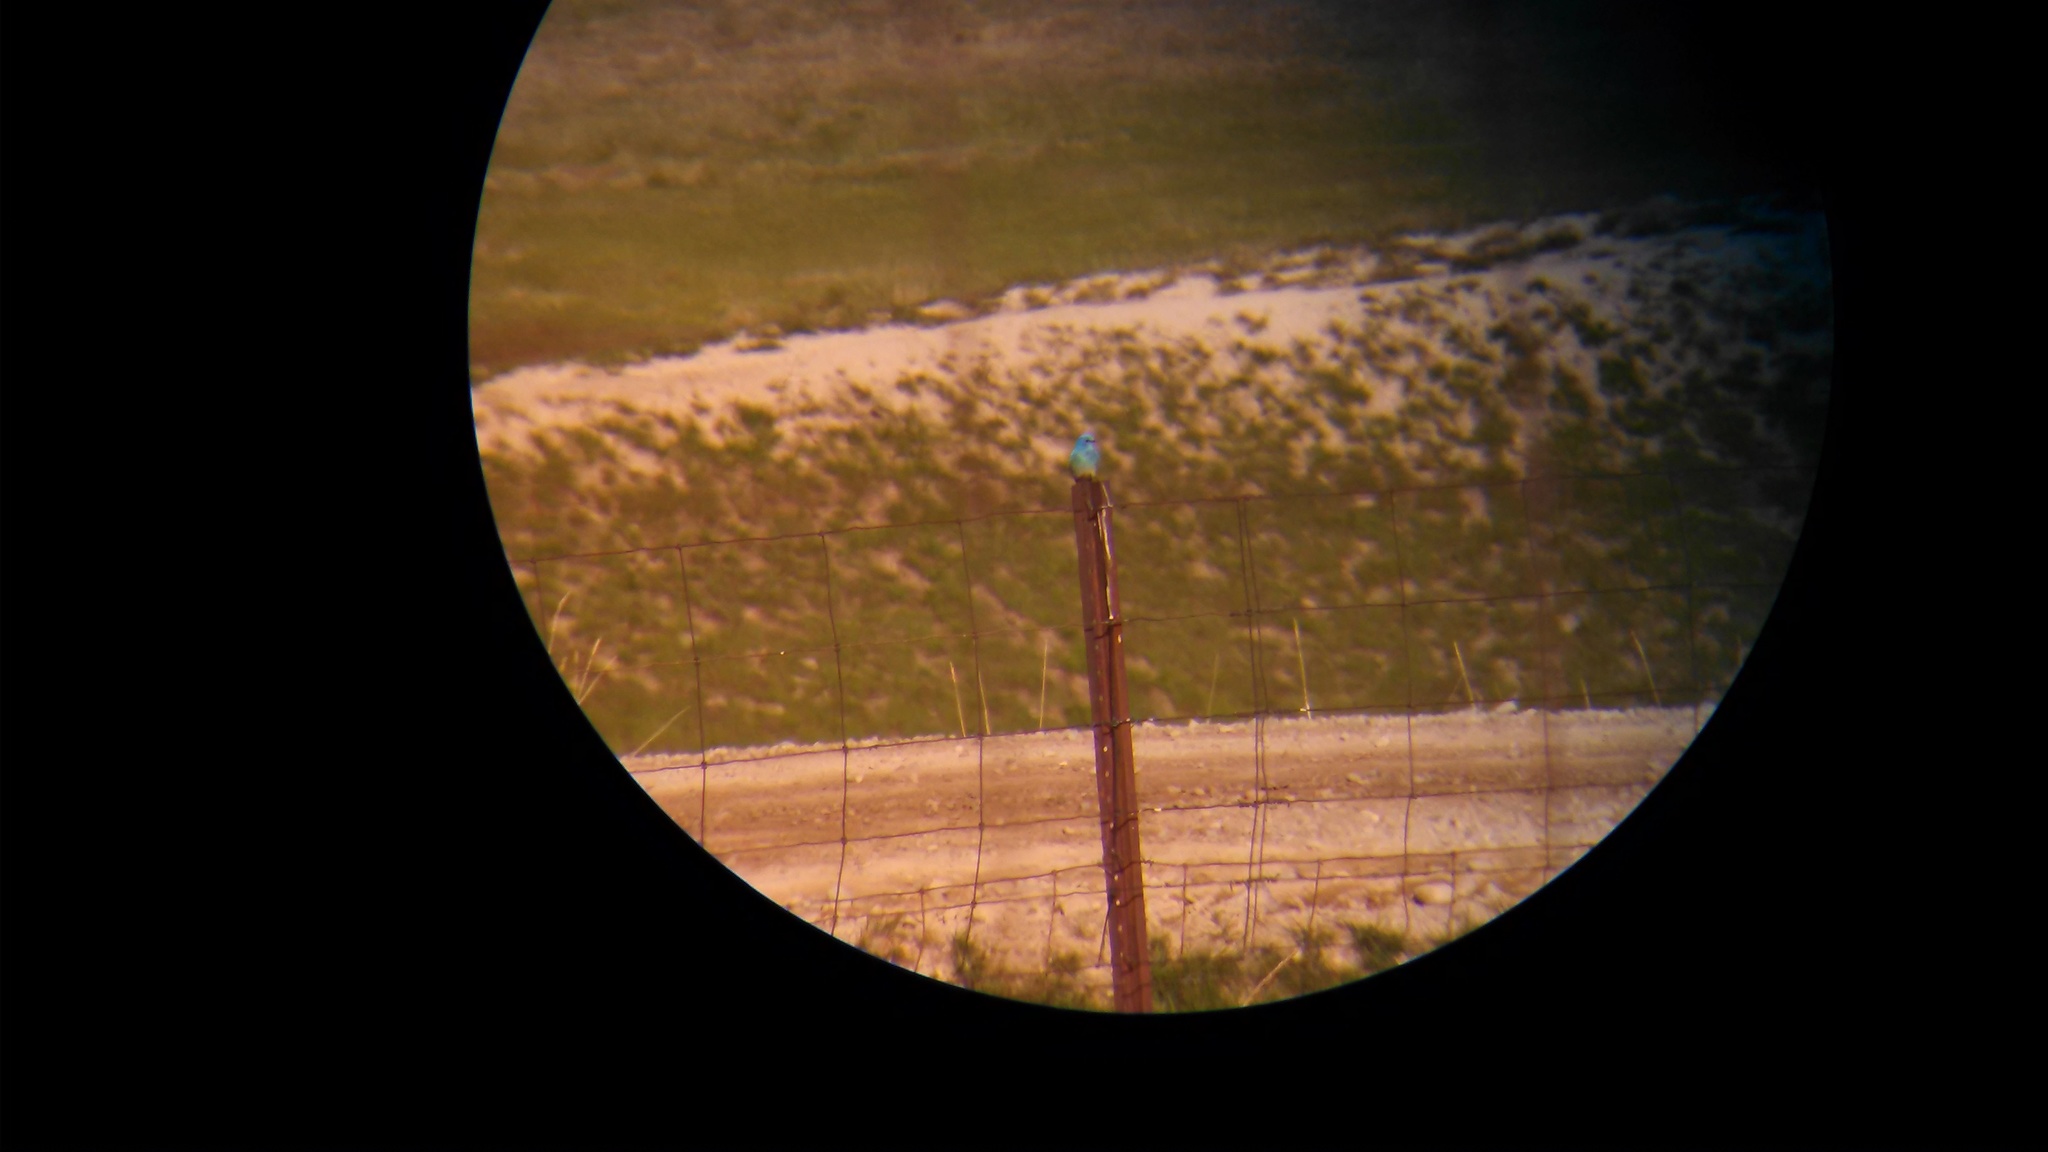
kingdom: Animalia
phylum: Chordata
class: Aves
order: Passeriformes
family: Turdidae
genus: Sialia
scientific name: Sialia currucoides
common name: Mountain bluebird
